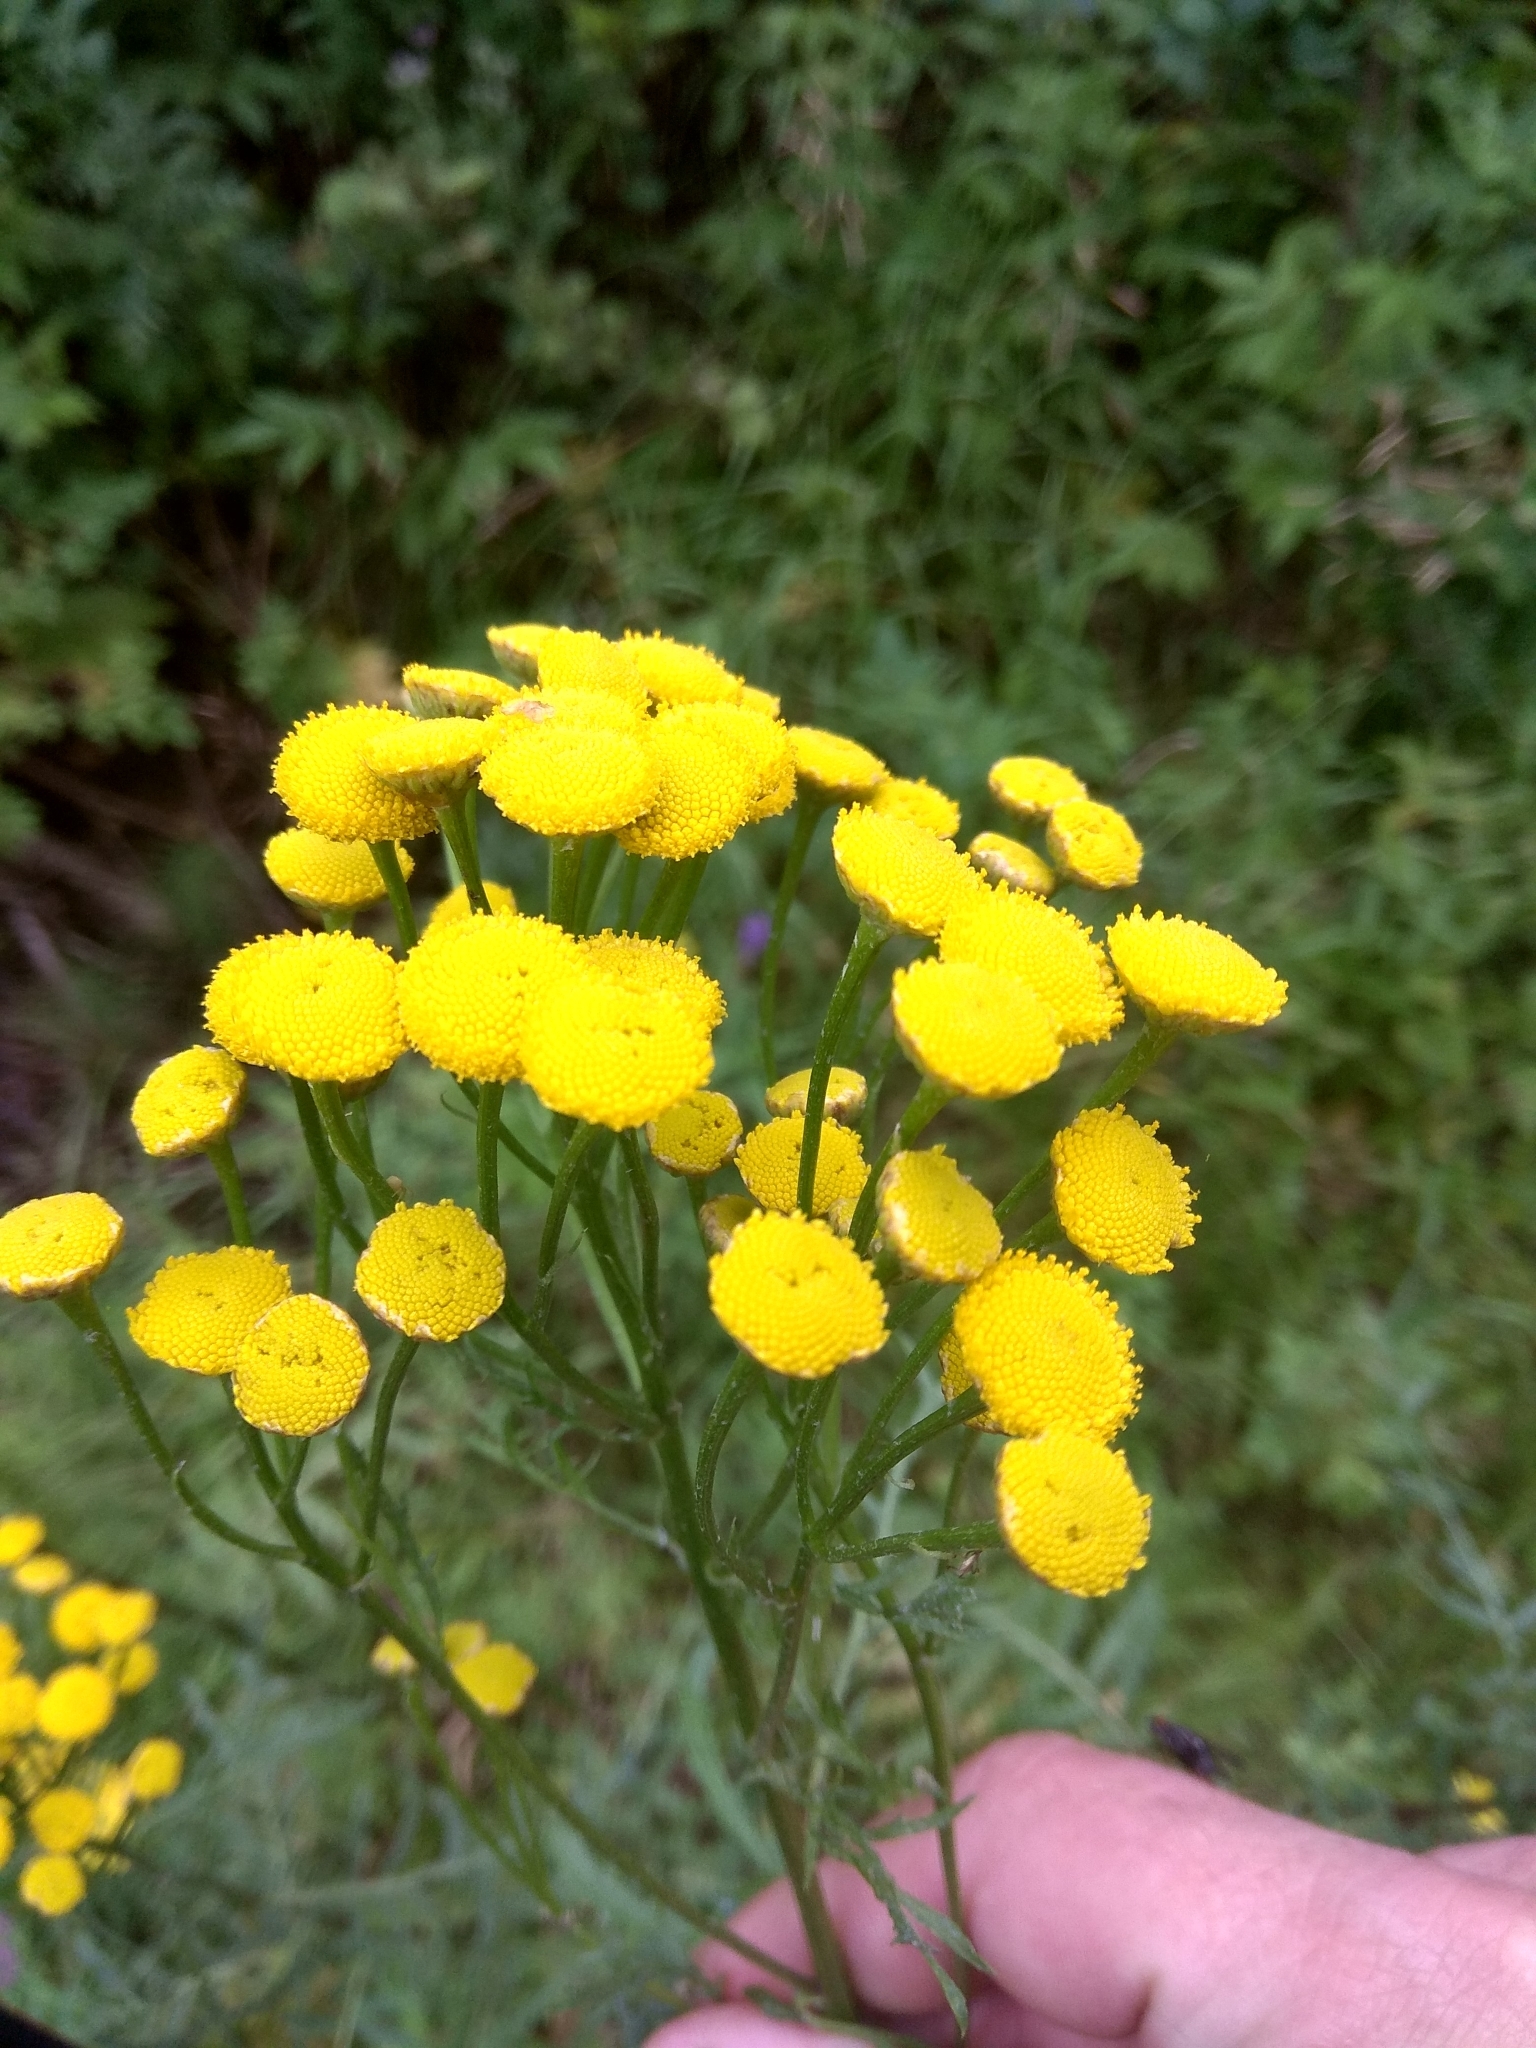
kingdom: Plantae
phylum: Tracheophyta
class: Magnoliopsida
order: Asterales
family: Asteraceae
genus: Tanacetum
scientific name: Tanacetum vulgare
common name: Common tansy
